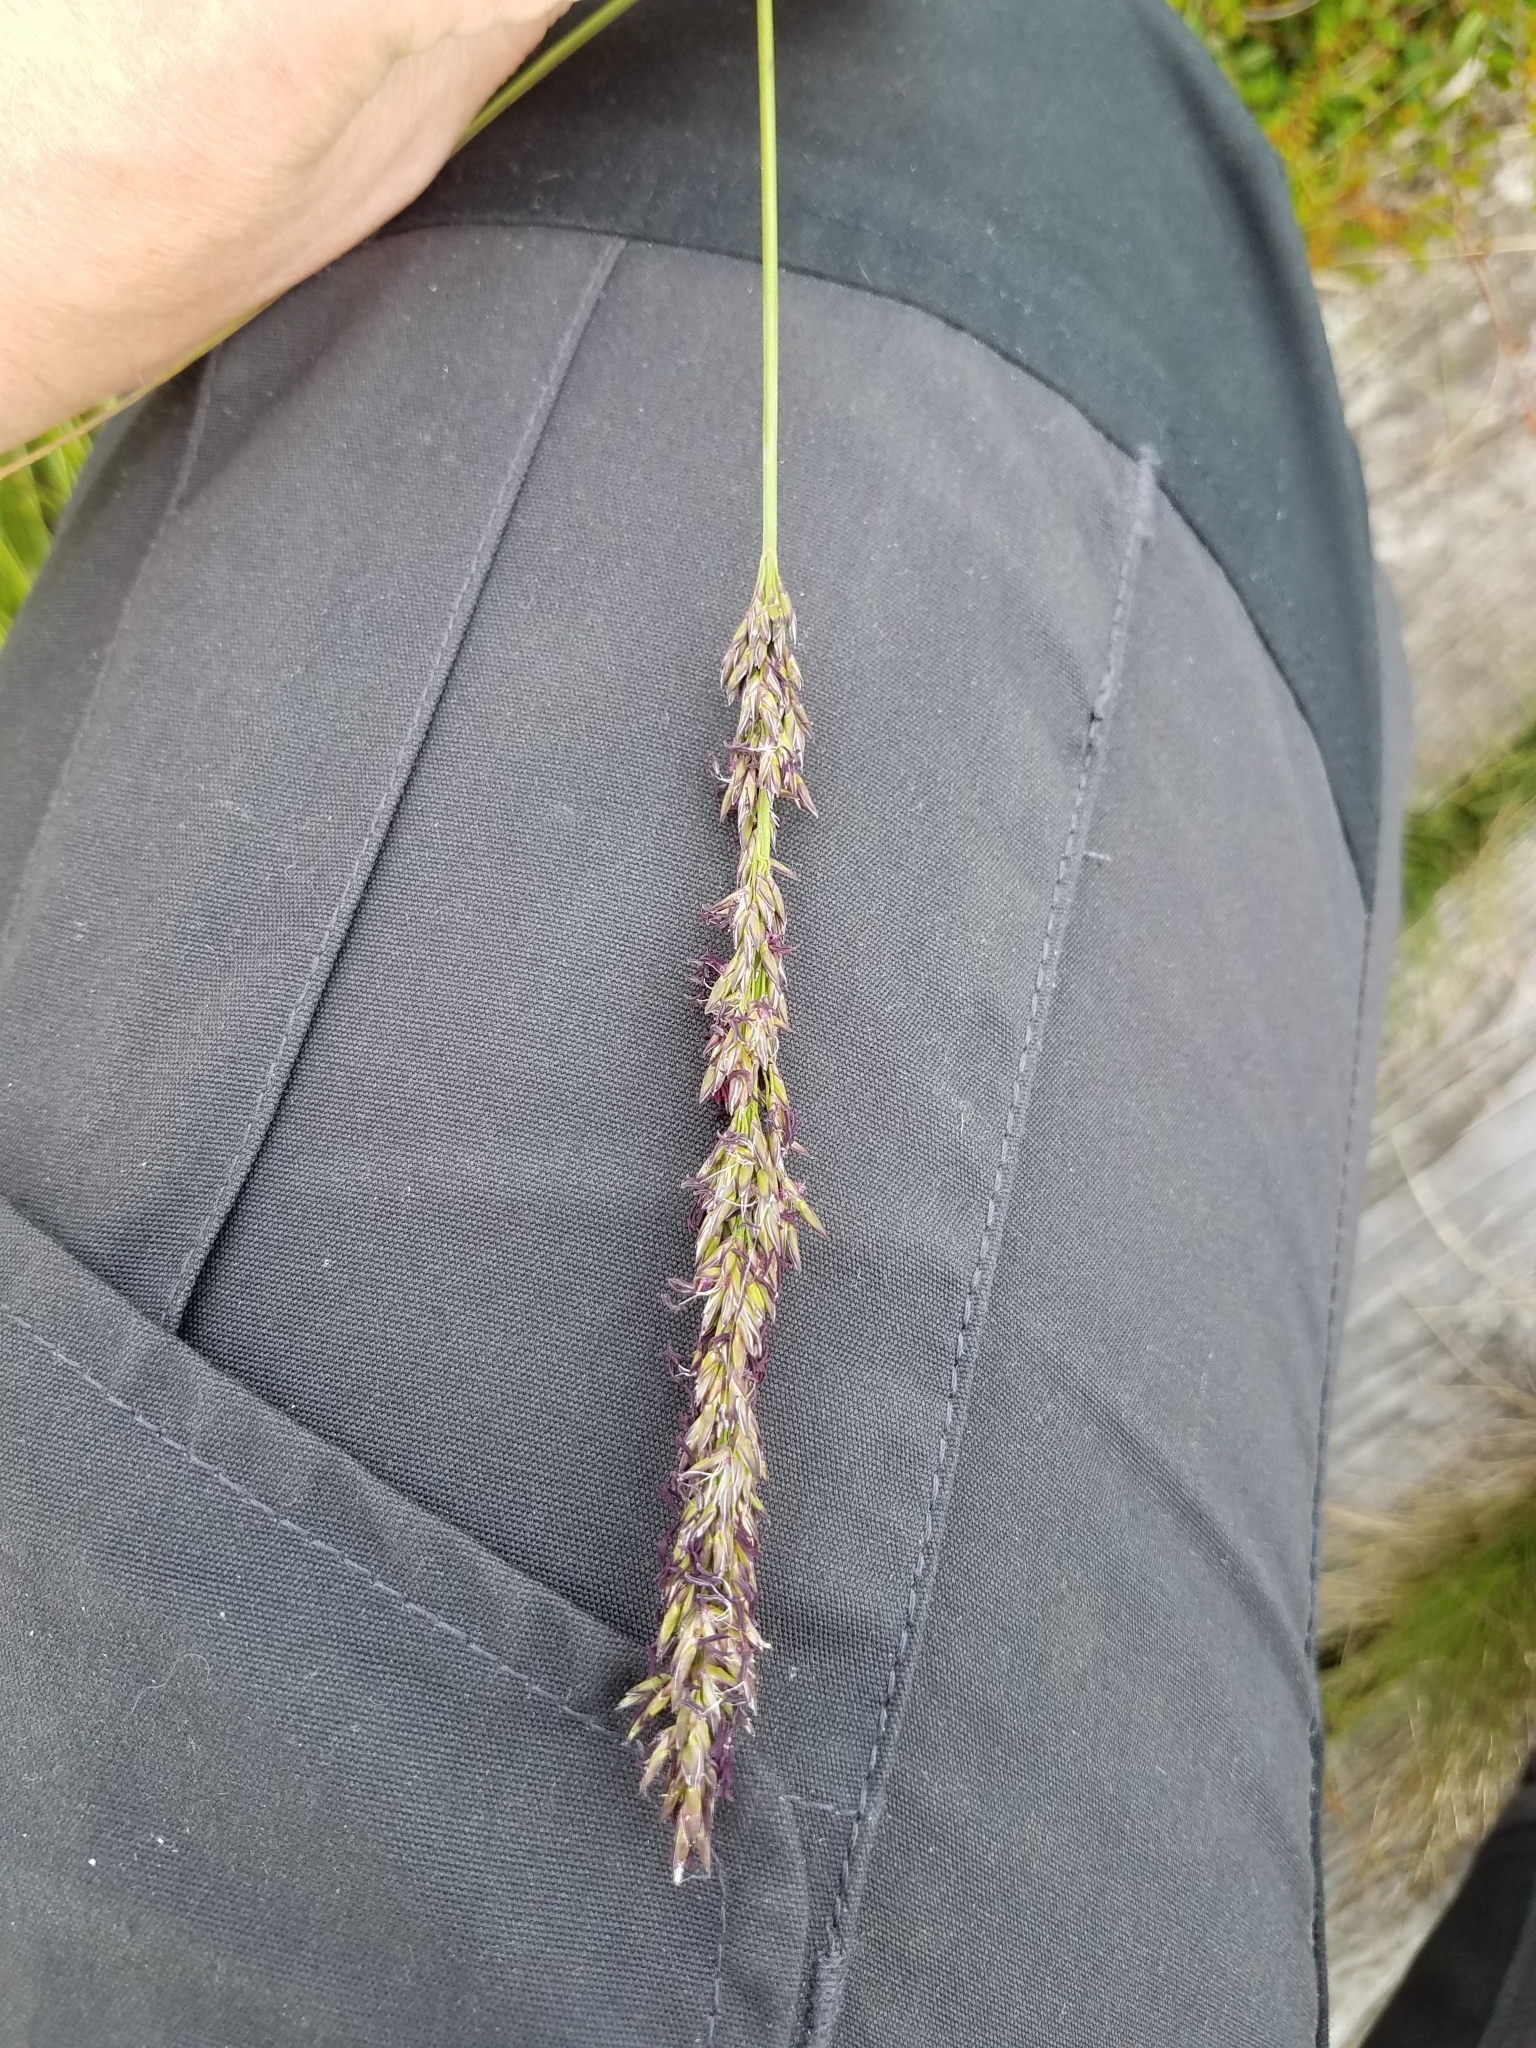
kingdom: Plantae
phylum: Tracheophyta
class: Liliopsida
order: Poales
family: Poaceae
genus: Molinia
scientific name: Molinia caerulea
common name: Purple moor-grass
